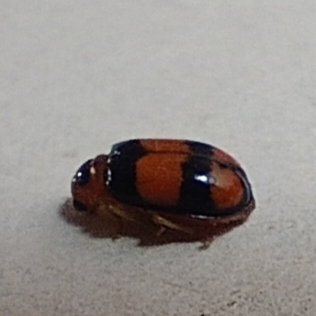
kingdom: Animalia
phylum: Arthropoda
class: Insecta
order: Coleoptera
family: Chrysomelidae
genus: Diacantha
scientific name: Diacantha
